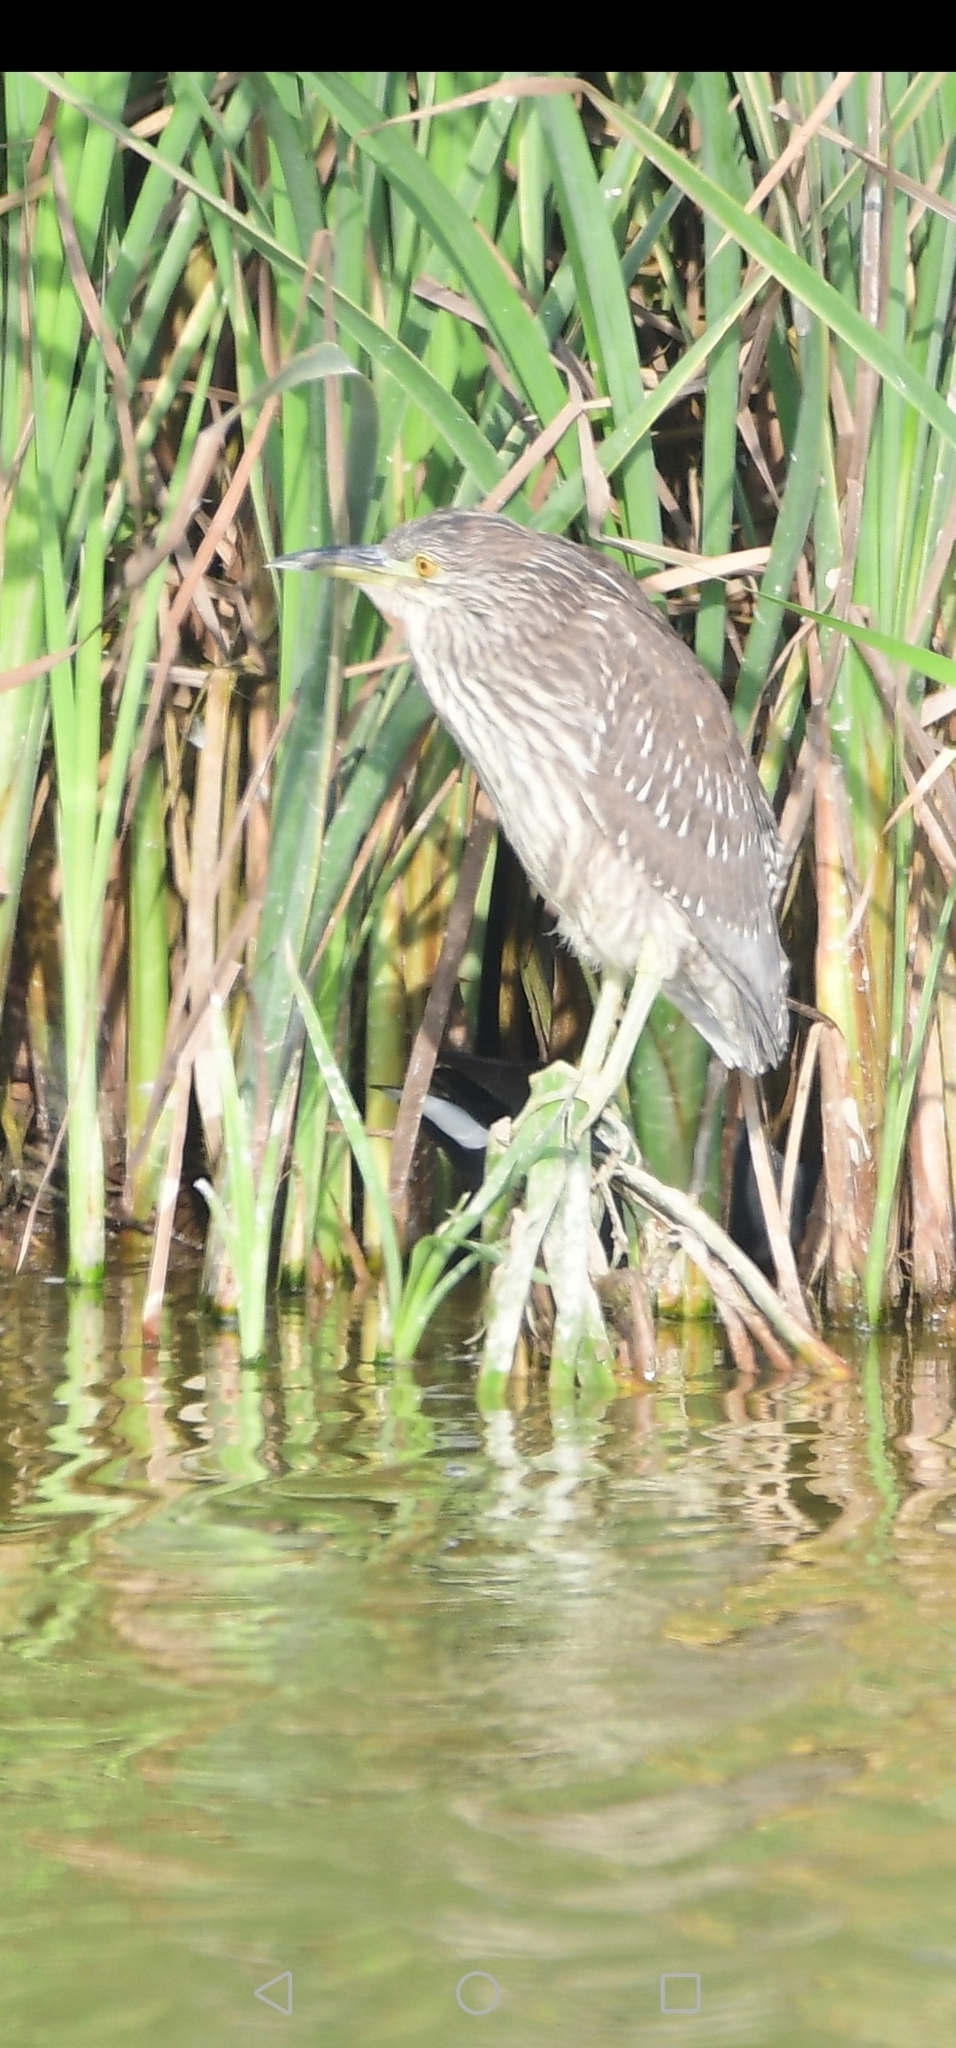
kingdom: Animalia
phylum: Chordata
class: Aves
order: Pelecaniformes
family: Ardeidae
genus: Nycticorax
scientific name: Nycticorax nycticorax
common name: Black-crowned night heron
